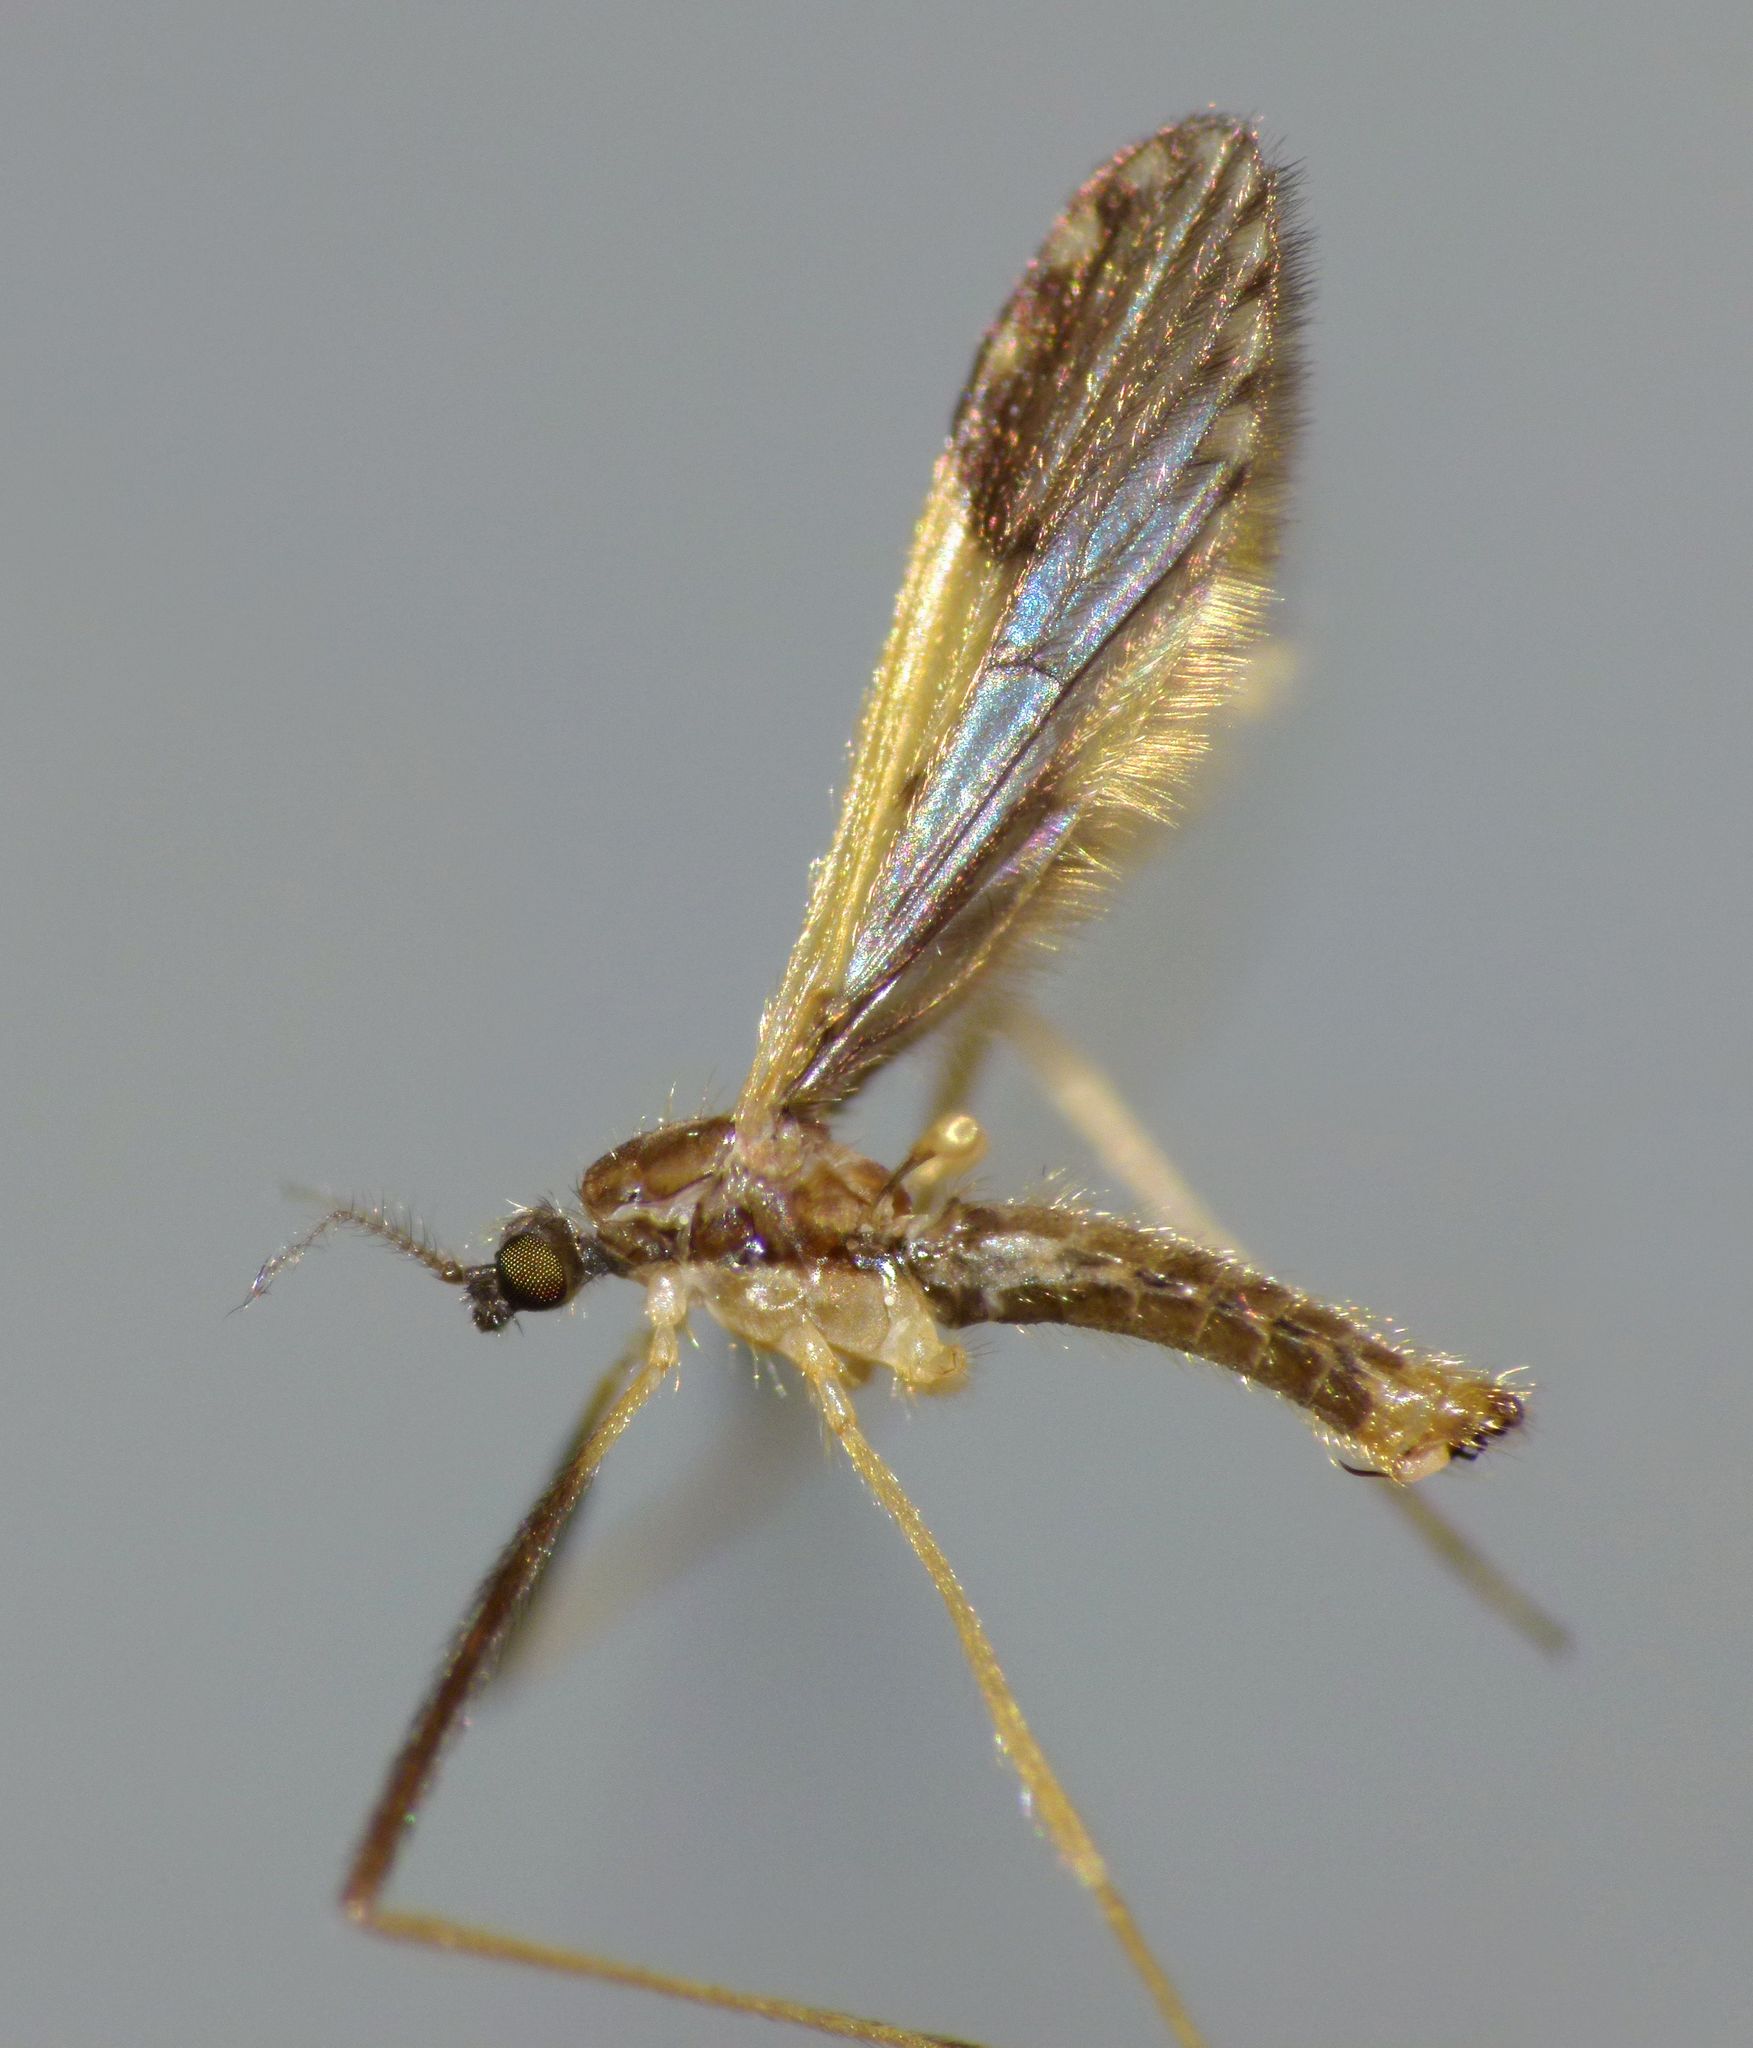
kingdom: Animalia
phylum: Arthropoda
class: Insecta
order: Diptera
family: Limoniidae
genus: Molophilus
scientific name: Molophilus pulcherrimus
